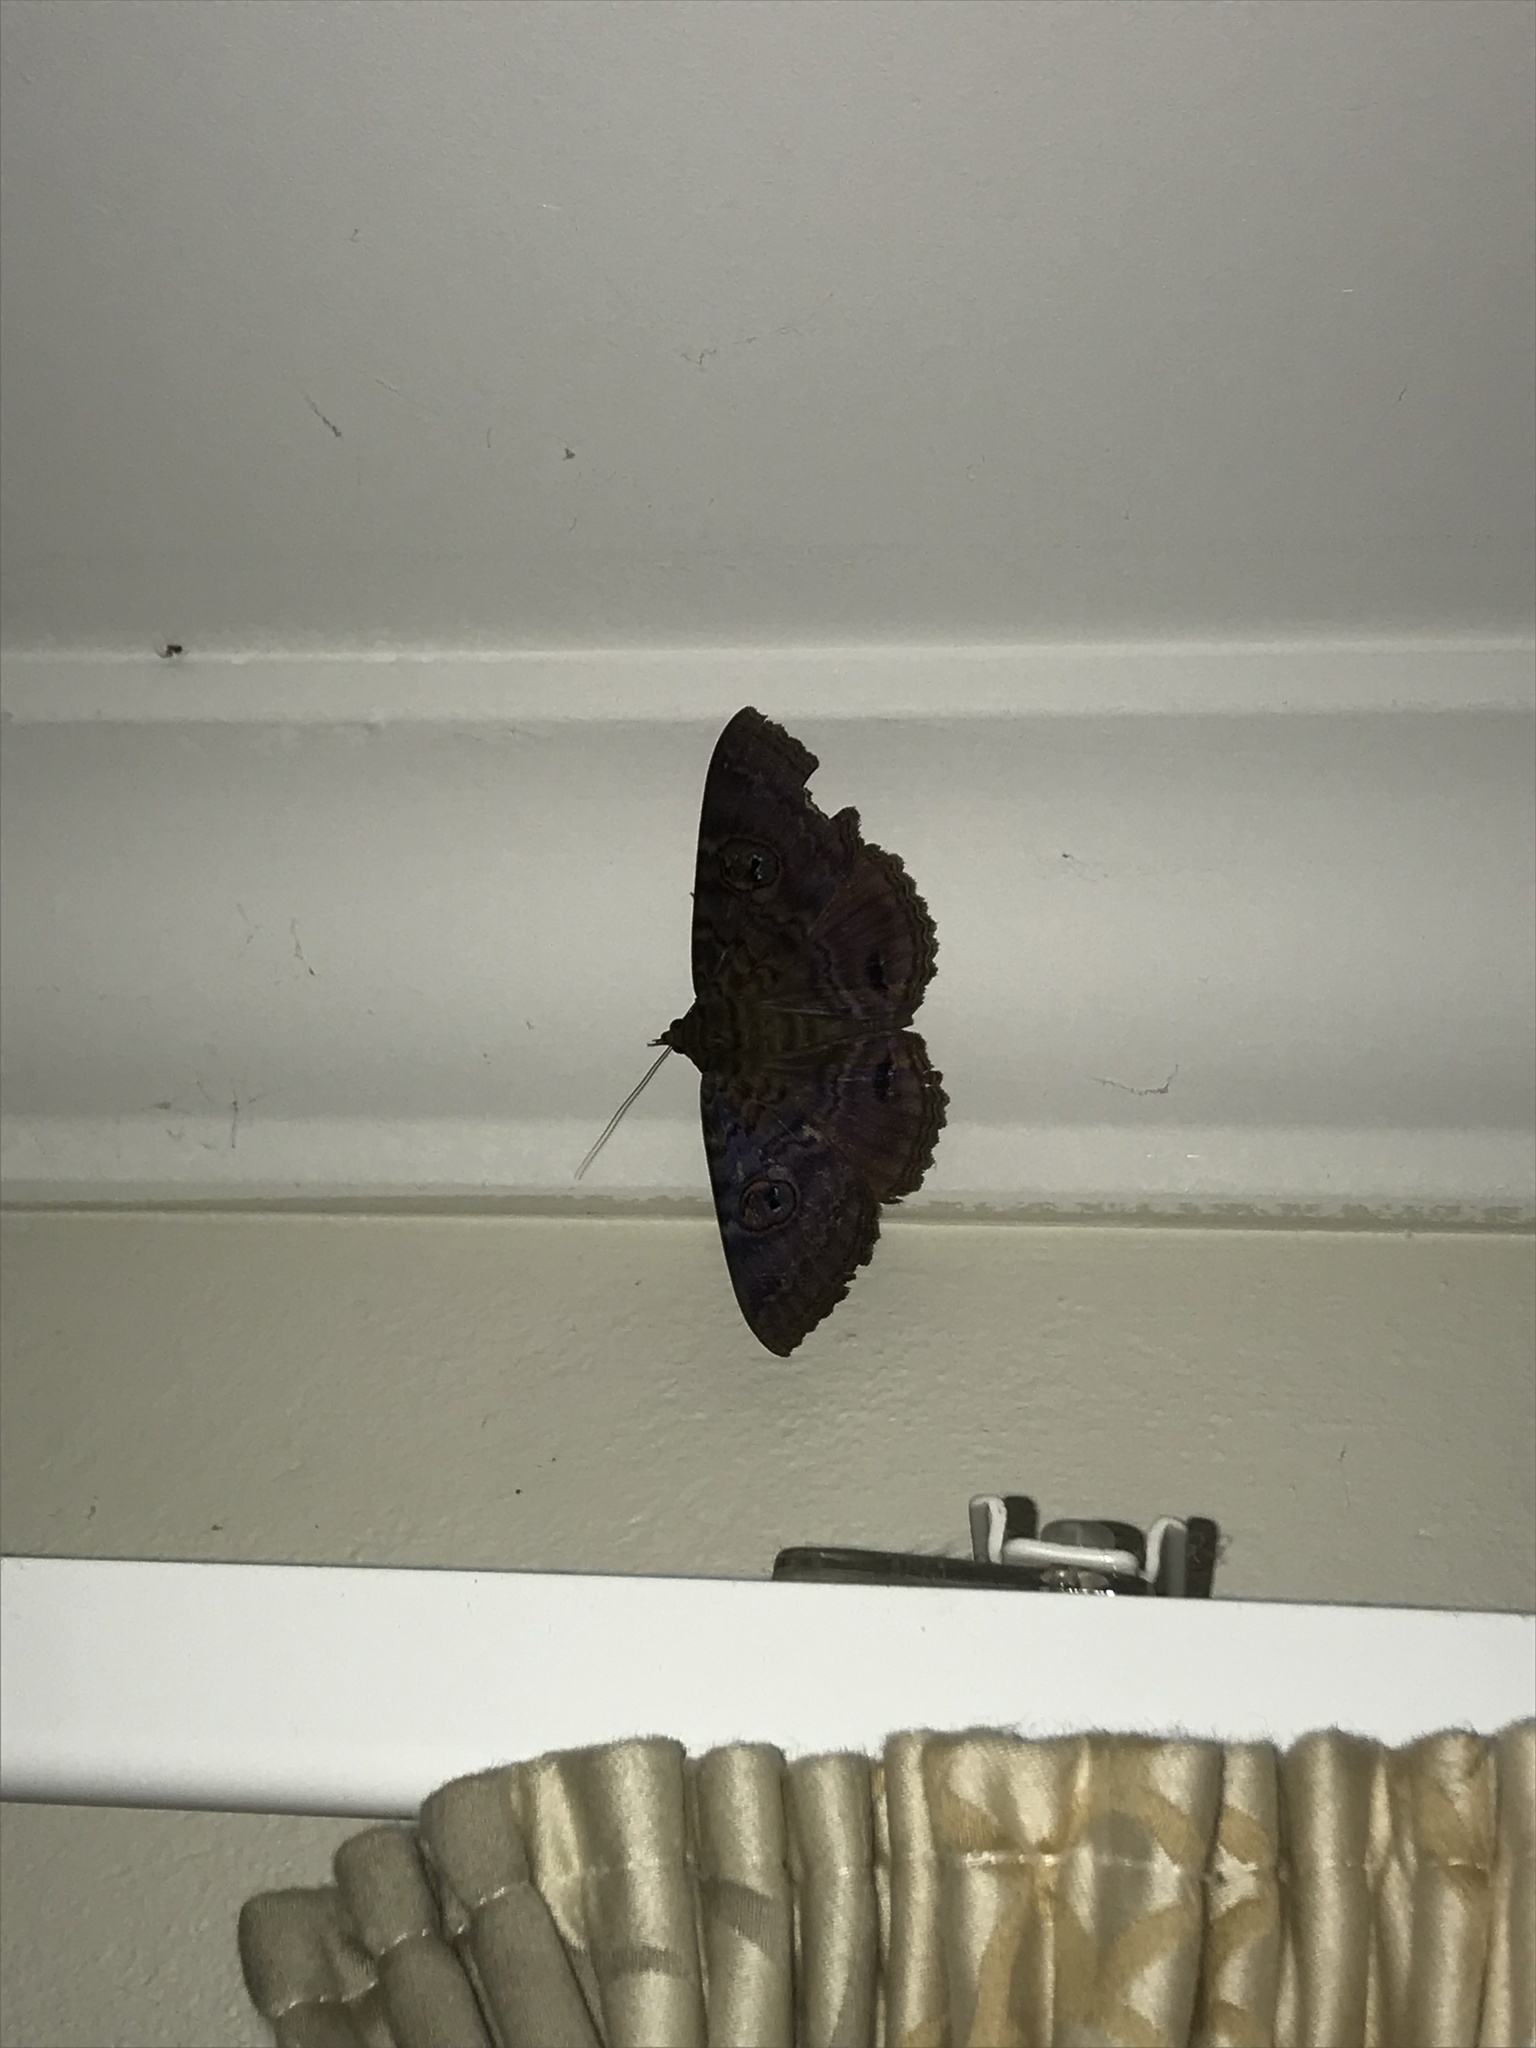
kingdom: Animalia
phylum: Arthropoda
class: Insecta
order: Lepidoptera
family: Erebidae
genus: Speiredonia
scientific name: Speiredonia spectans
